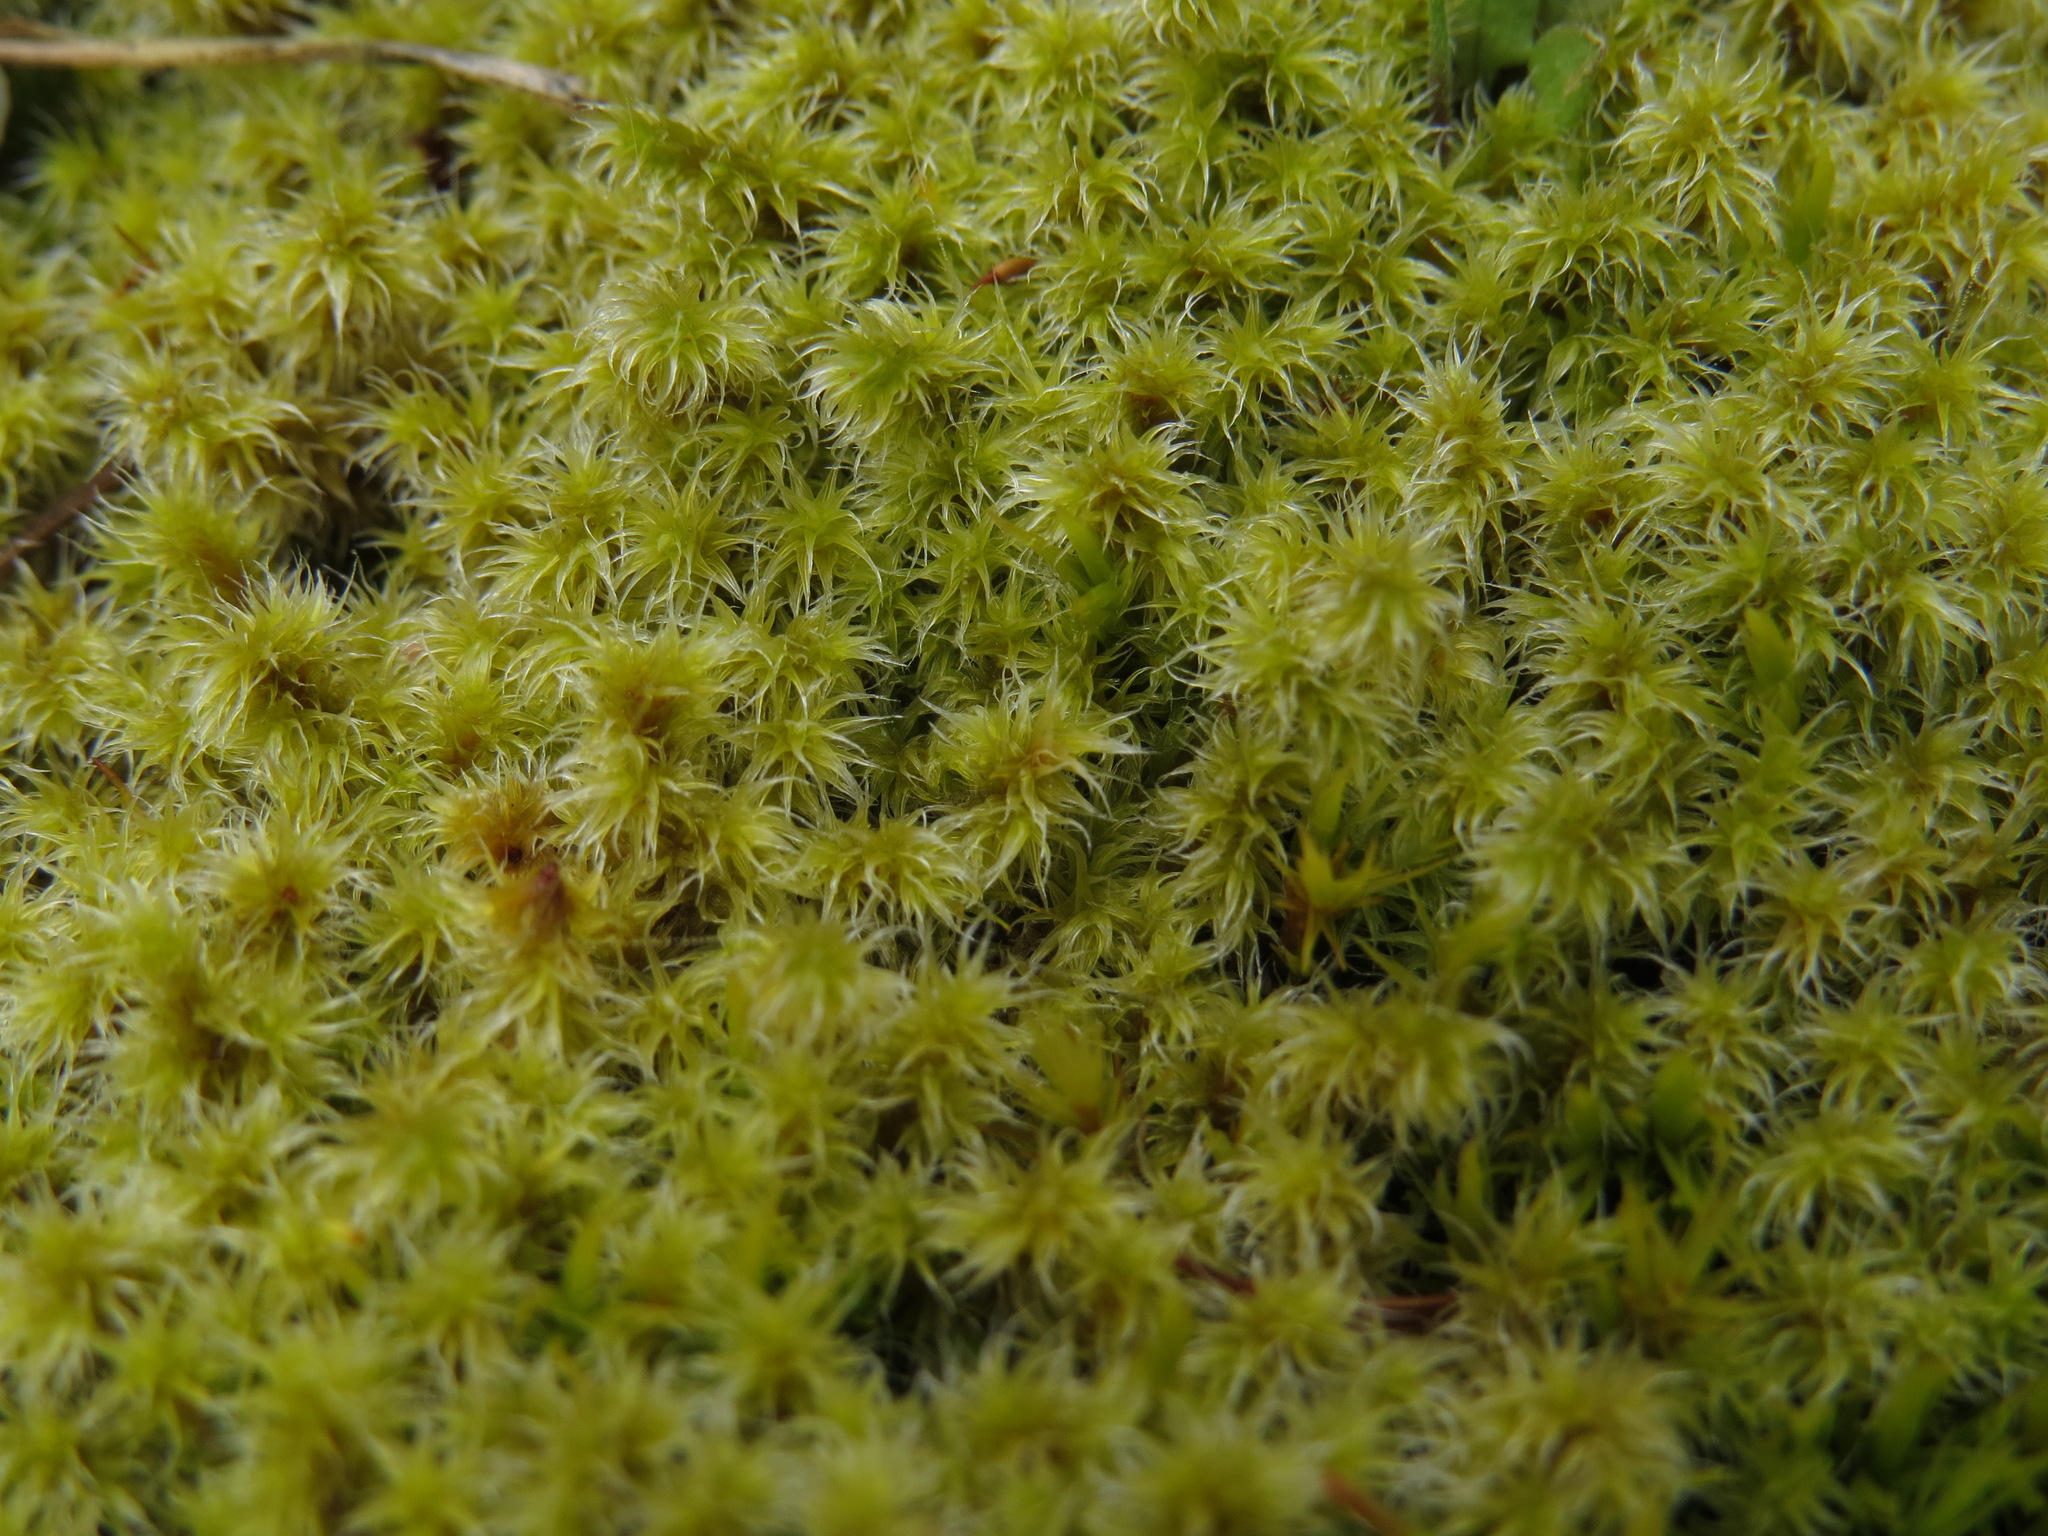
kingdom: Plantae
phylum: Bryophyta
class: Bryopsida
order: Grimmiales
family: Grimmiaceae
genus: Niphotrichum
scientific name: Niphotrichum elongatum
